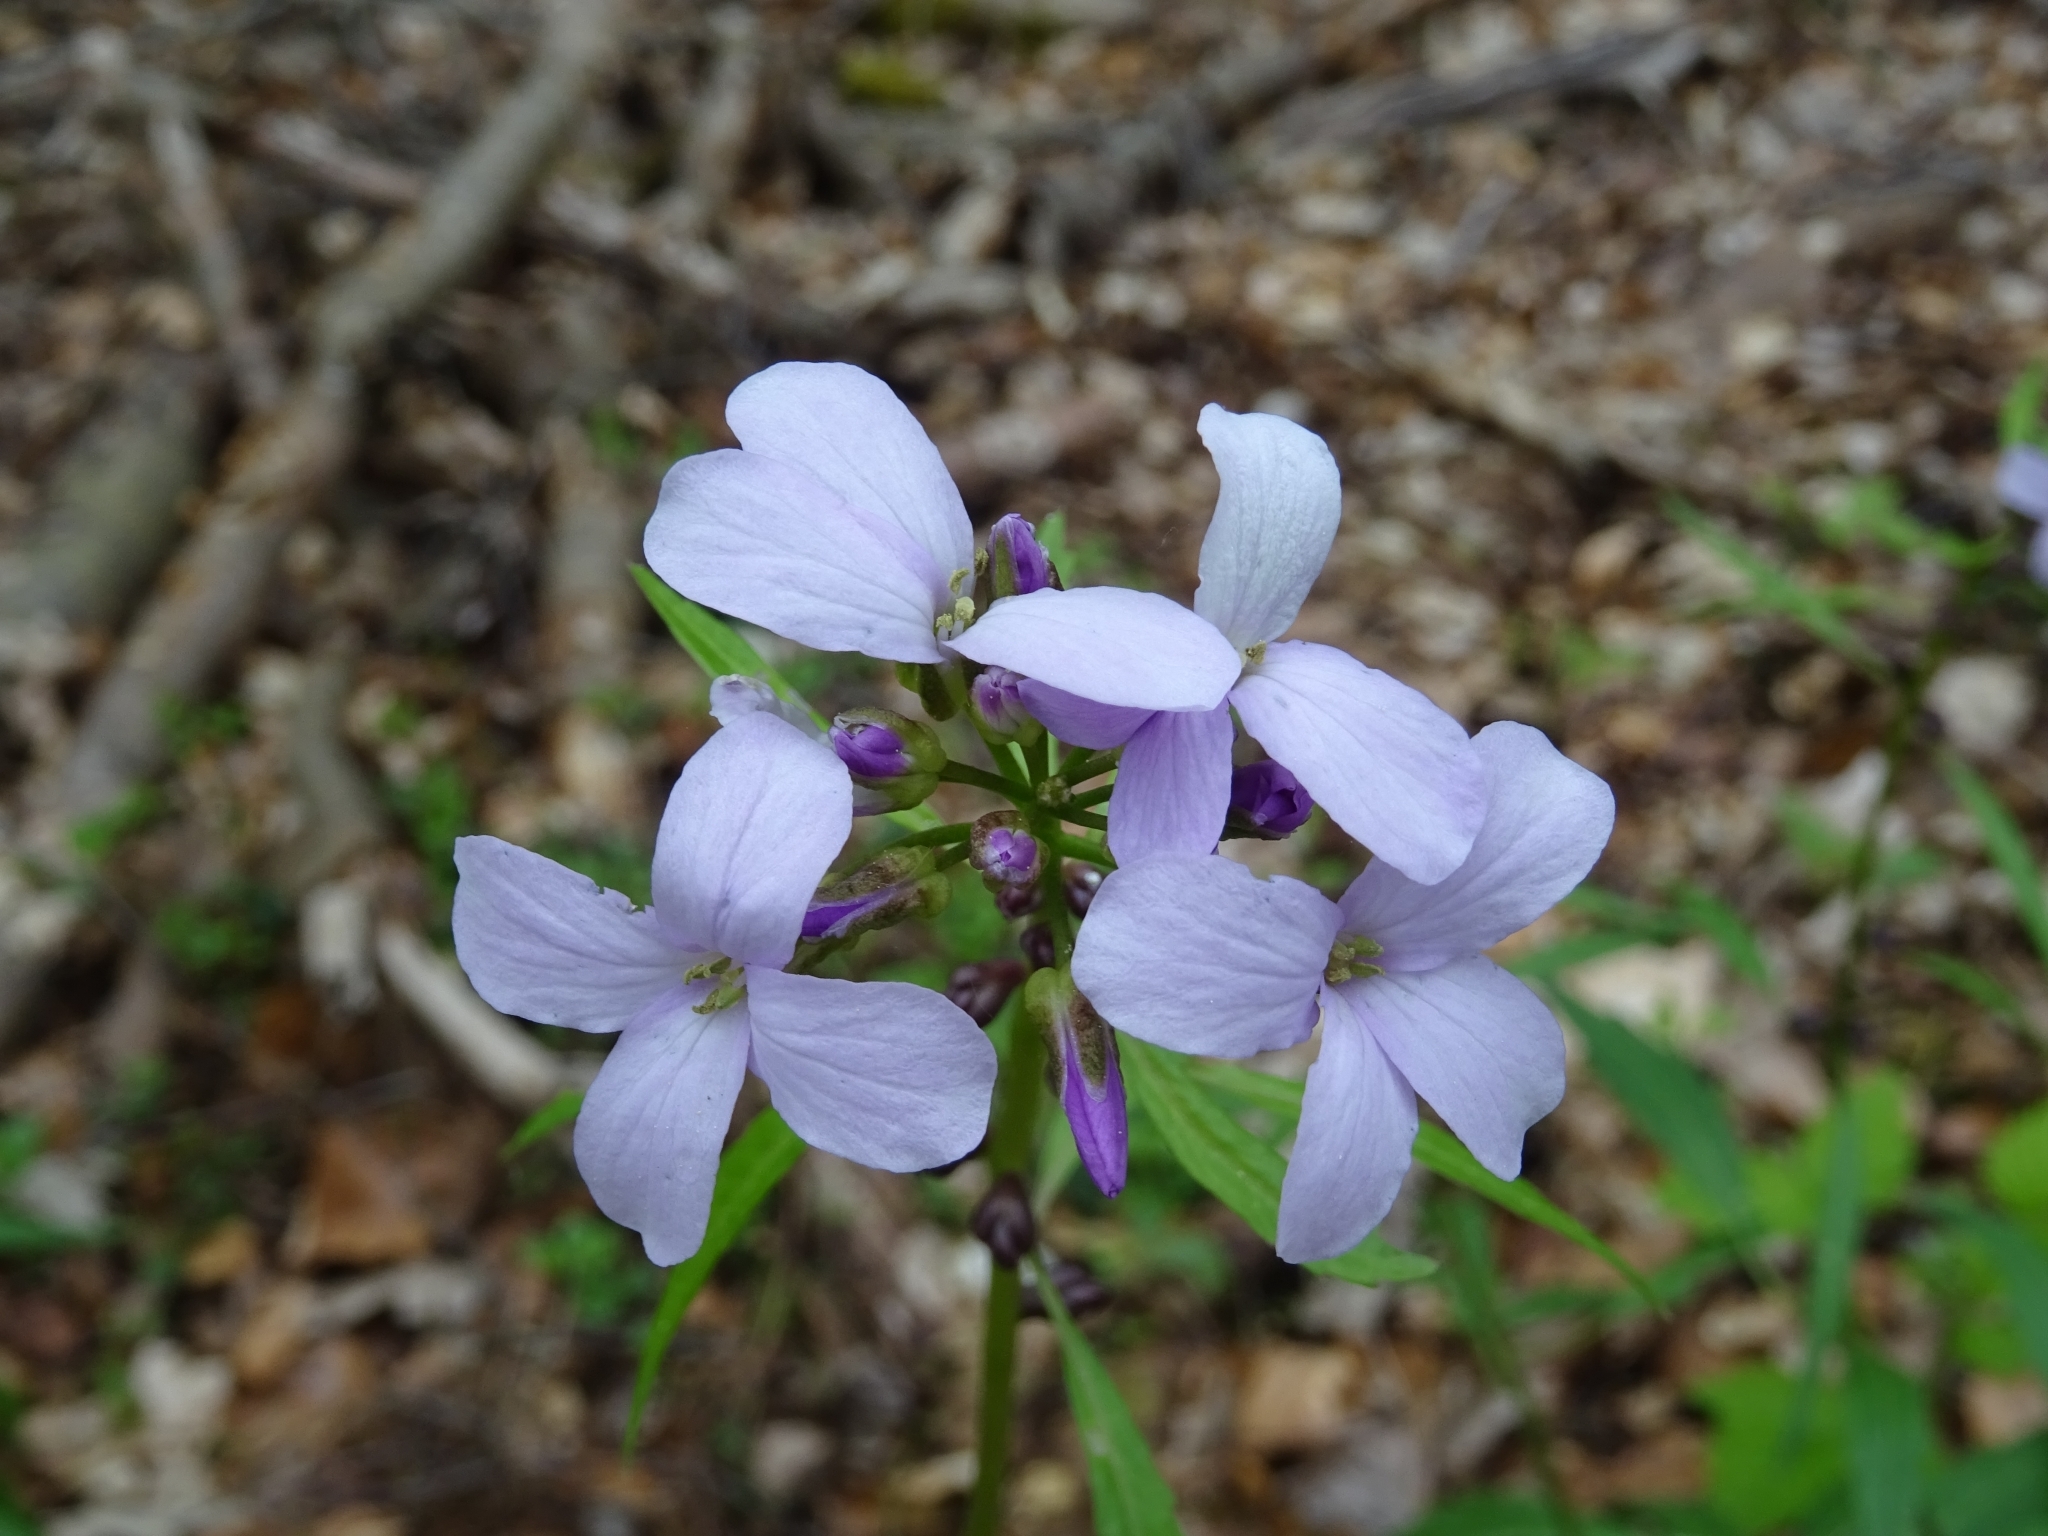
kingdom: Plantae
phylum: Tracheophyta
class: Magnoliopsida
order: Brassicales
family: Brassicaceae
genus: Cardamine
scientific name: Cardamine bulbifera
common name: Coralroot bittercress
